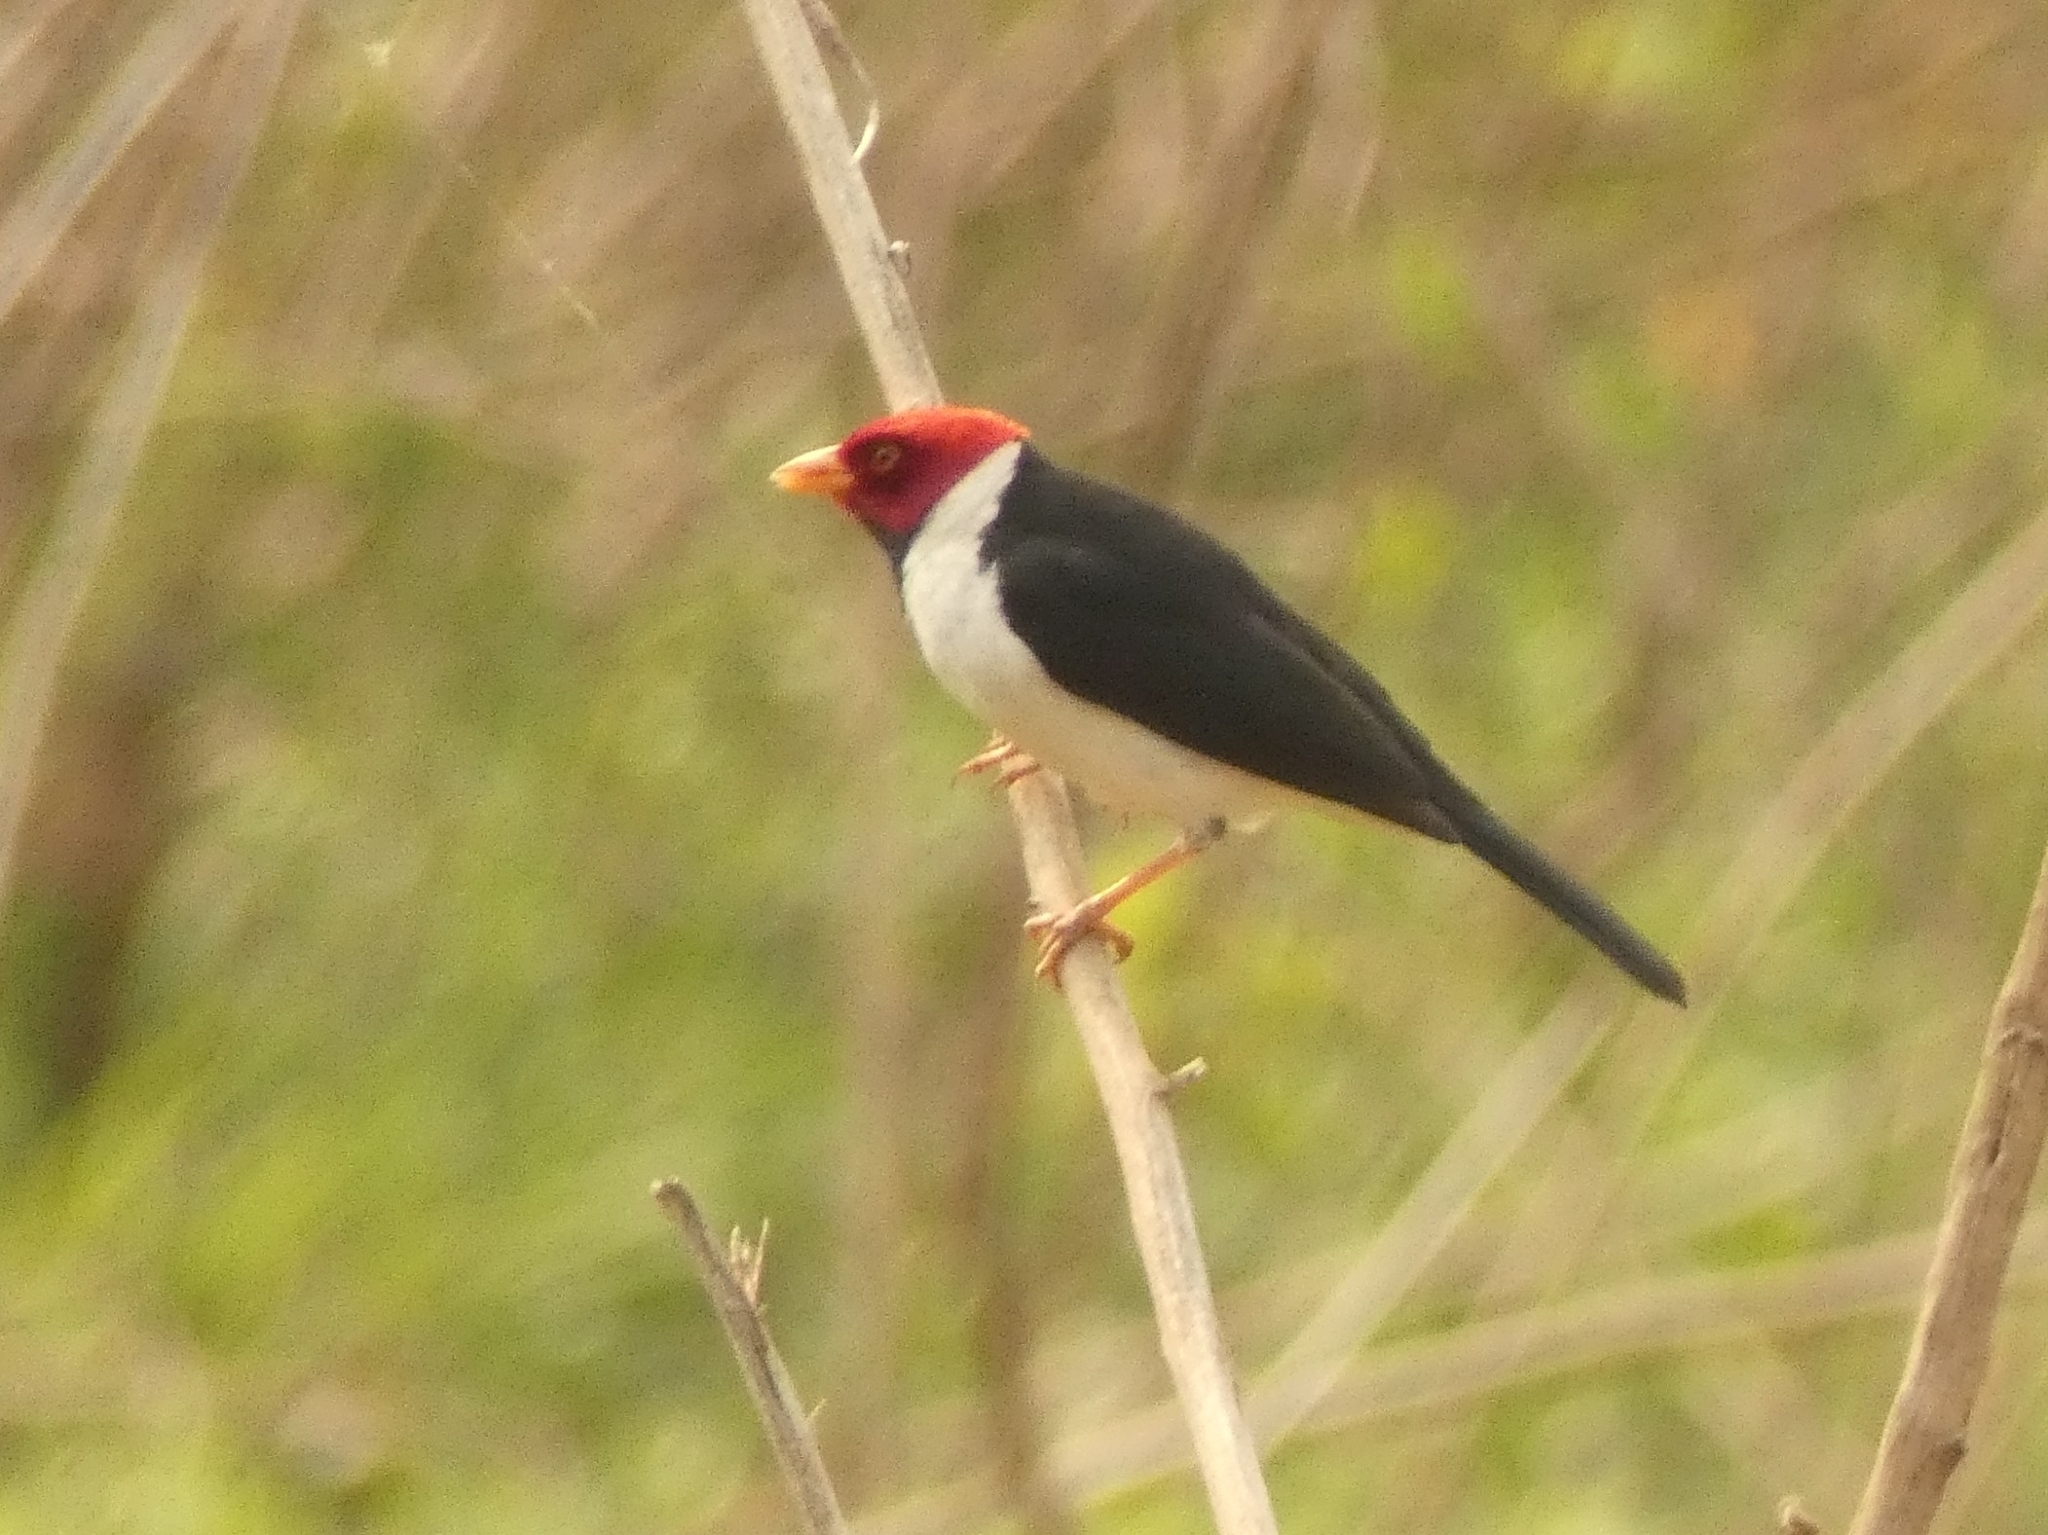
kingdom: Animalia
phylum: Chordata
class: Aves
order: Passeriformes
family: Thraupidae
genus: Paroaria
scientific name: Paroaria capitata
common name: Yellow-billed cardinal
